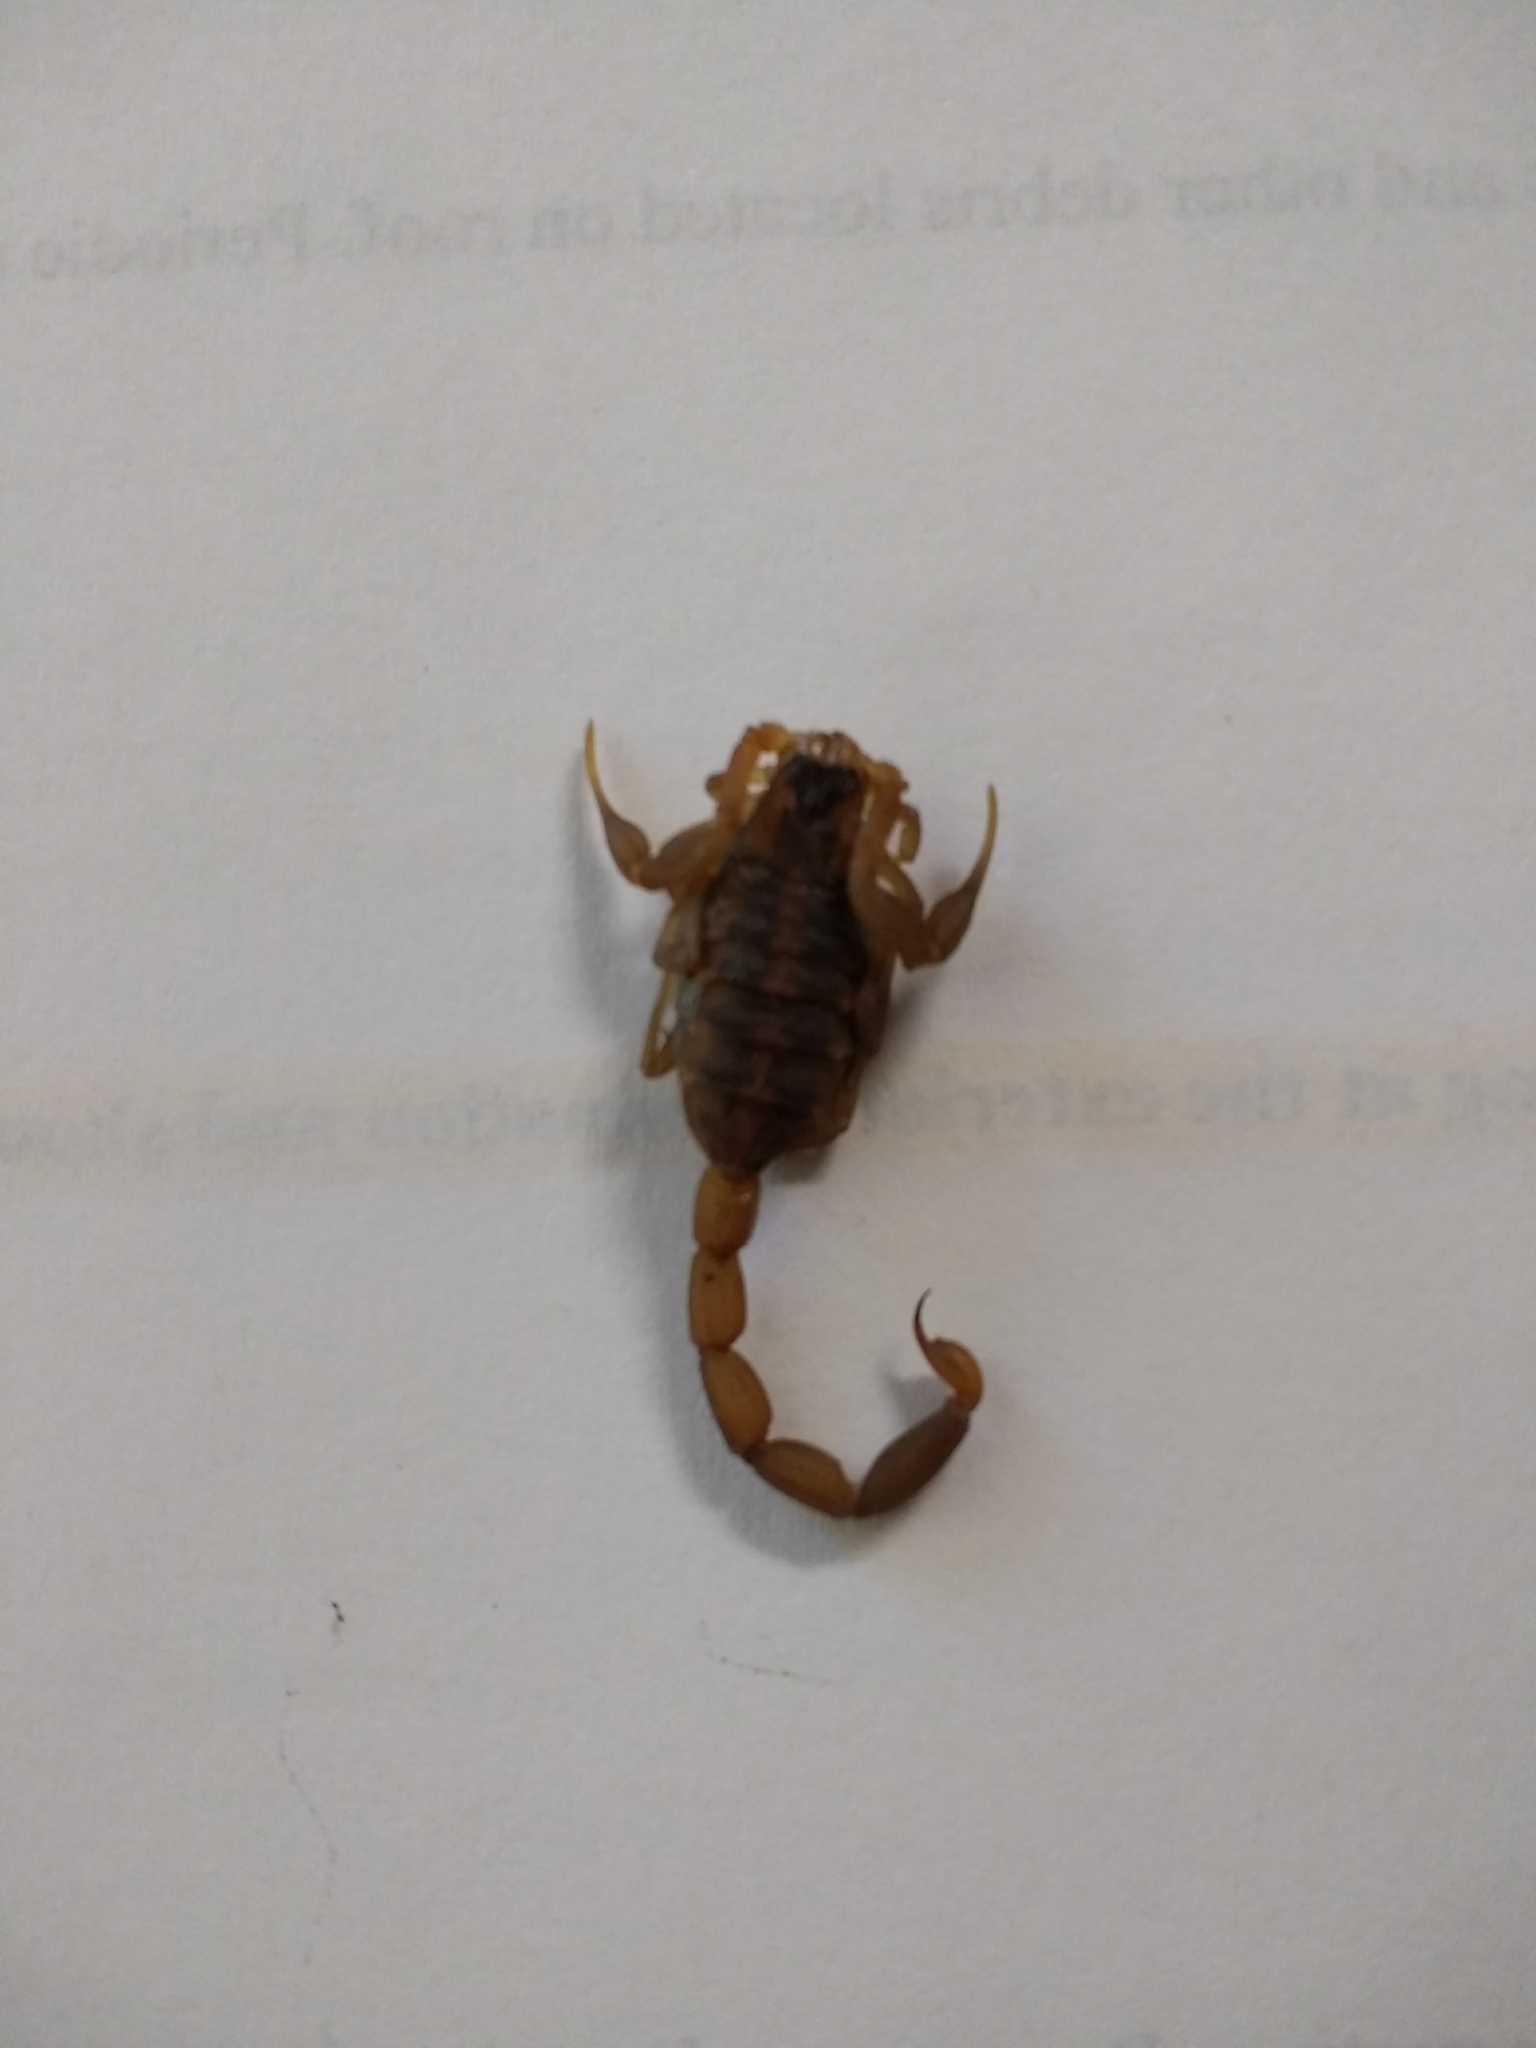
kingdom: Animalia
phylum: Arthropoda
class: Arachnida
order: Scorpiones
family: Buthidae
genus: Centruroides
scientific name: Centruroides vittatus
